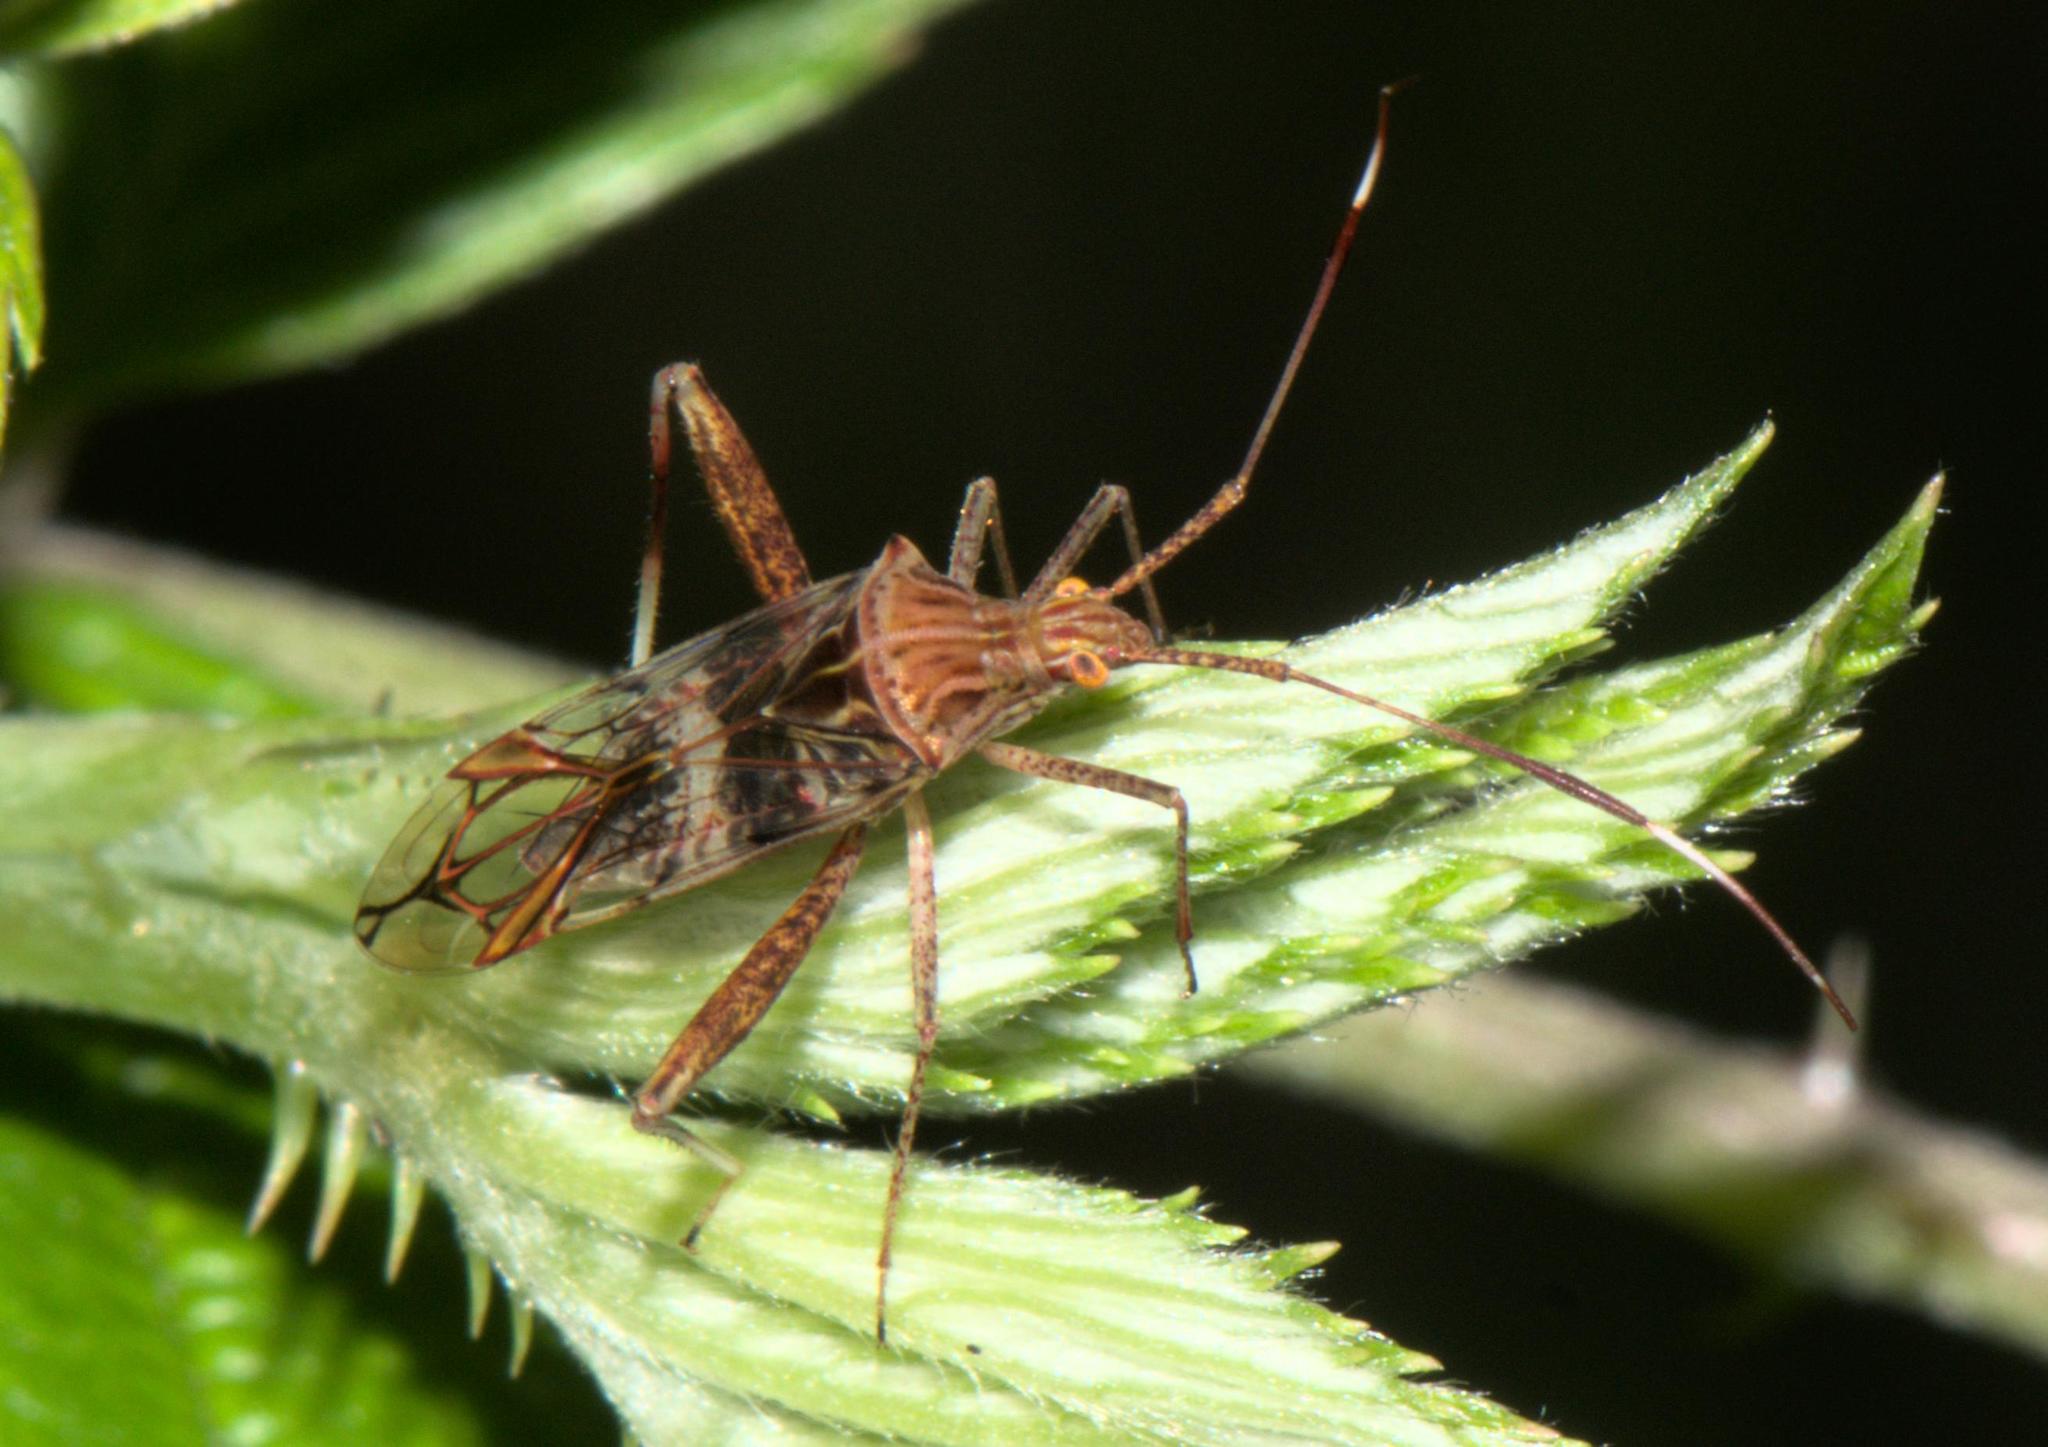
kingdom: Animalia
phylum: Arthropoda
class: Insecta
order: Hemiptera
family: Miridae
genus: Isabel
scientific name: Isabel ravana
